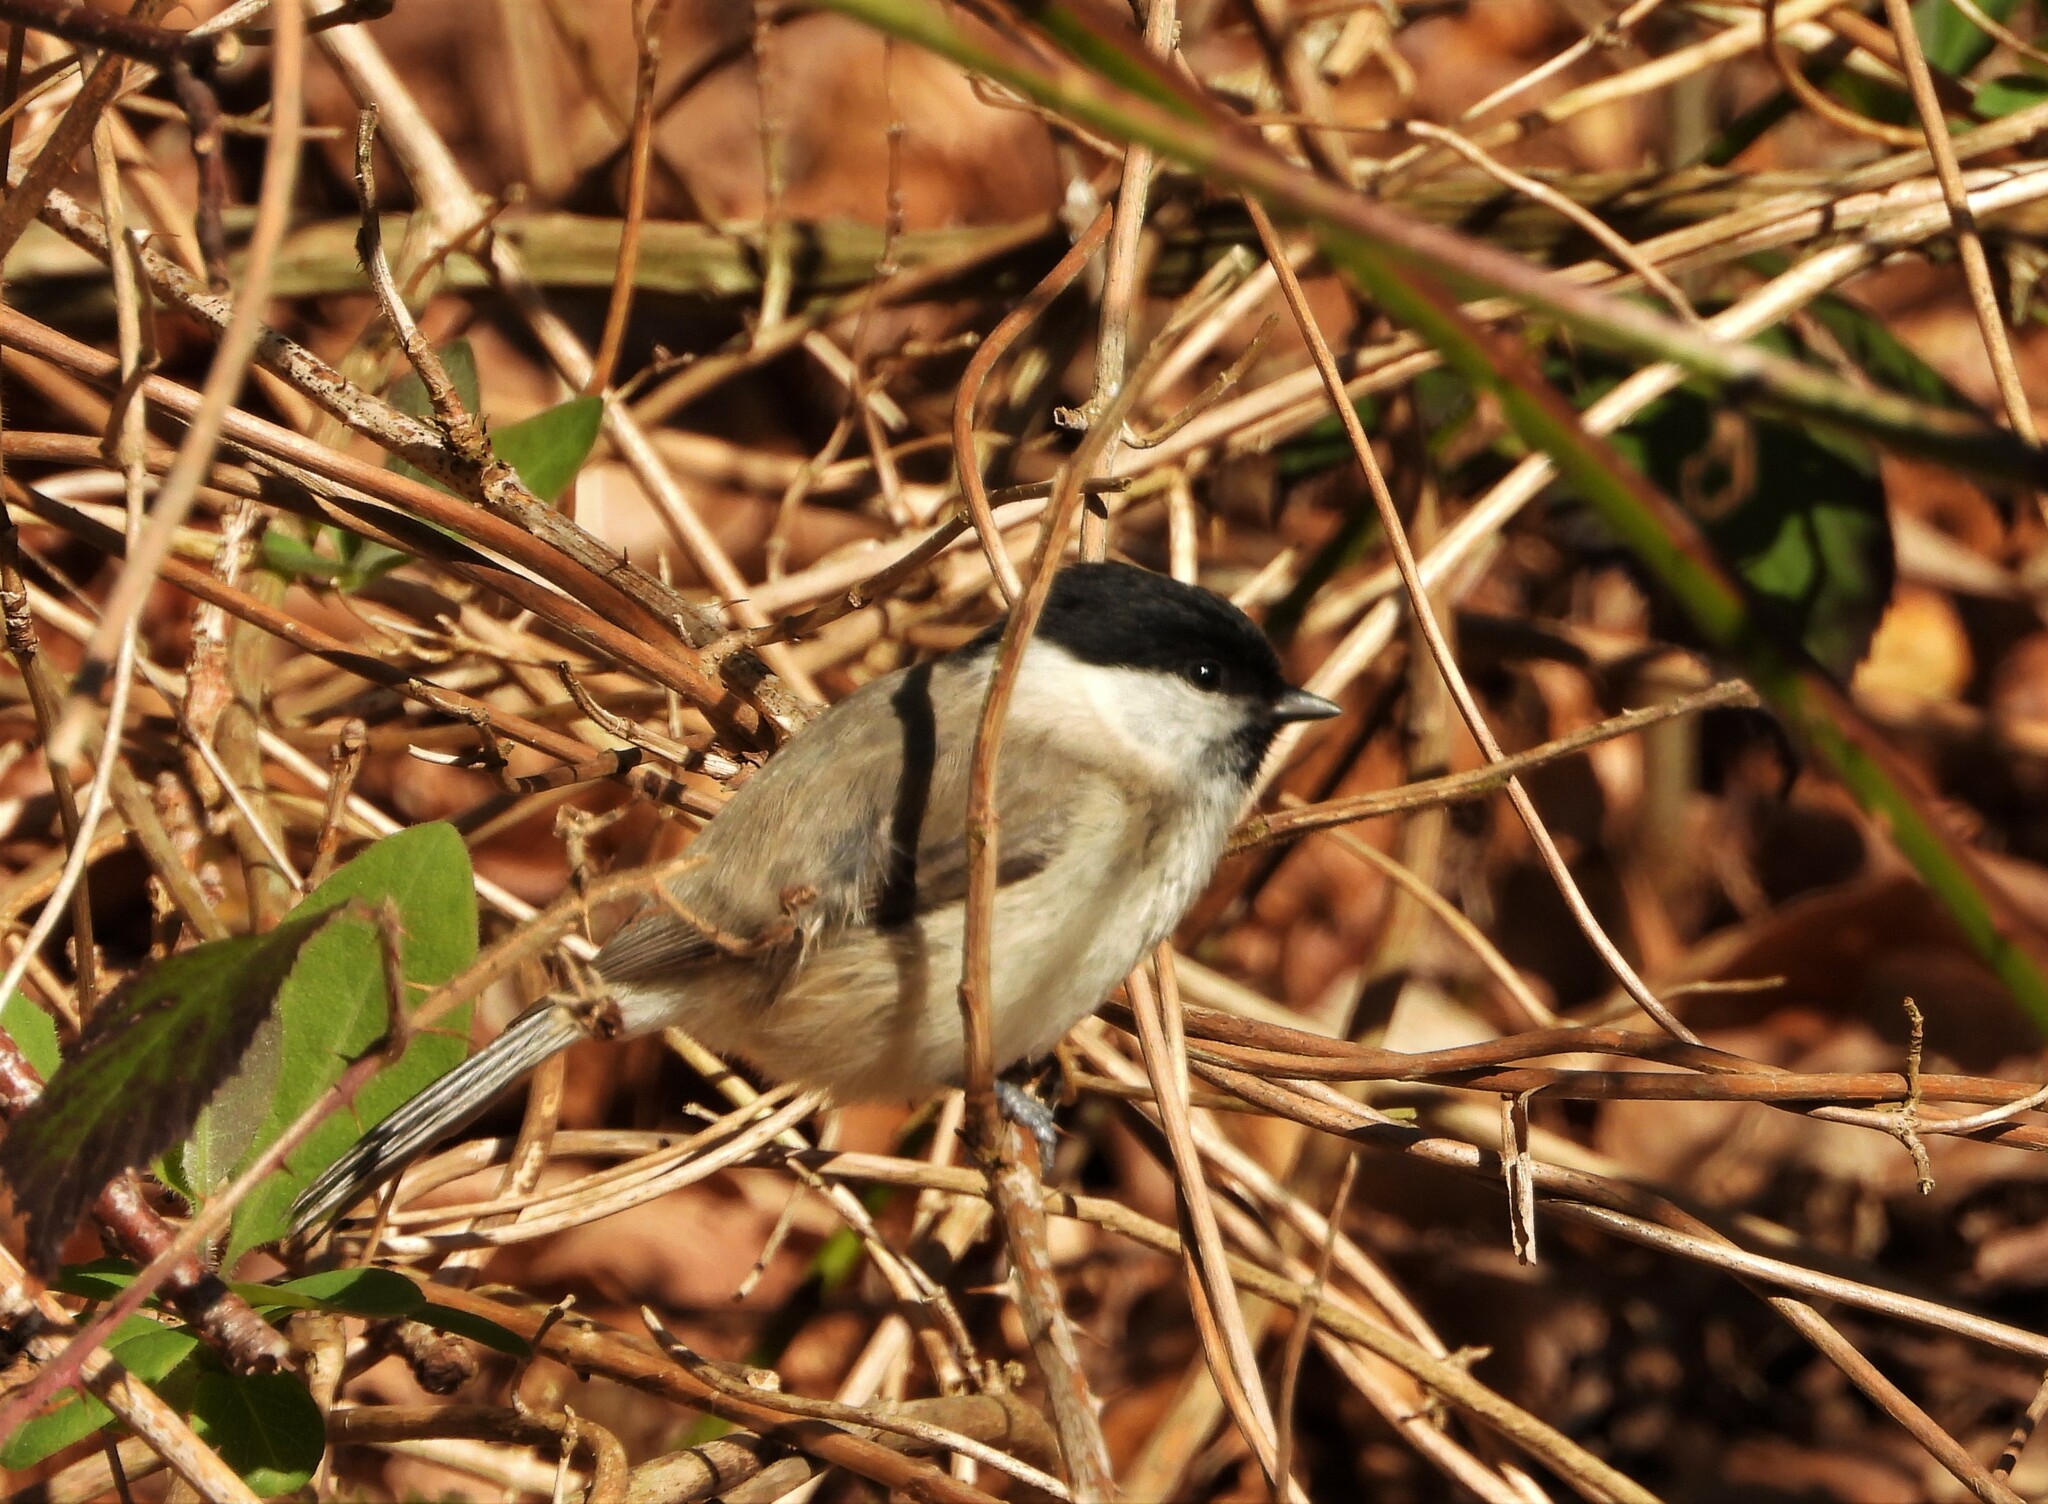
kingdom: Animalia
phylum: Chordata
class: Aves
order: Passeriformes
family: Paridae
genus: Poecile
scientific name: Poecile palustris
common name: Marsh tit
